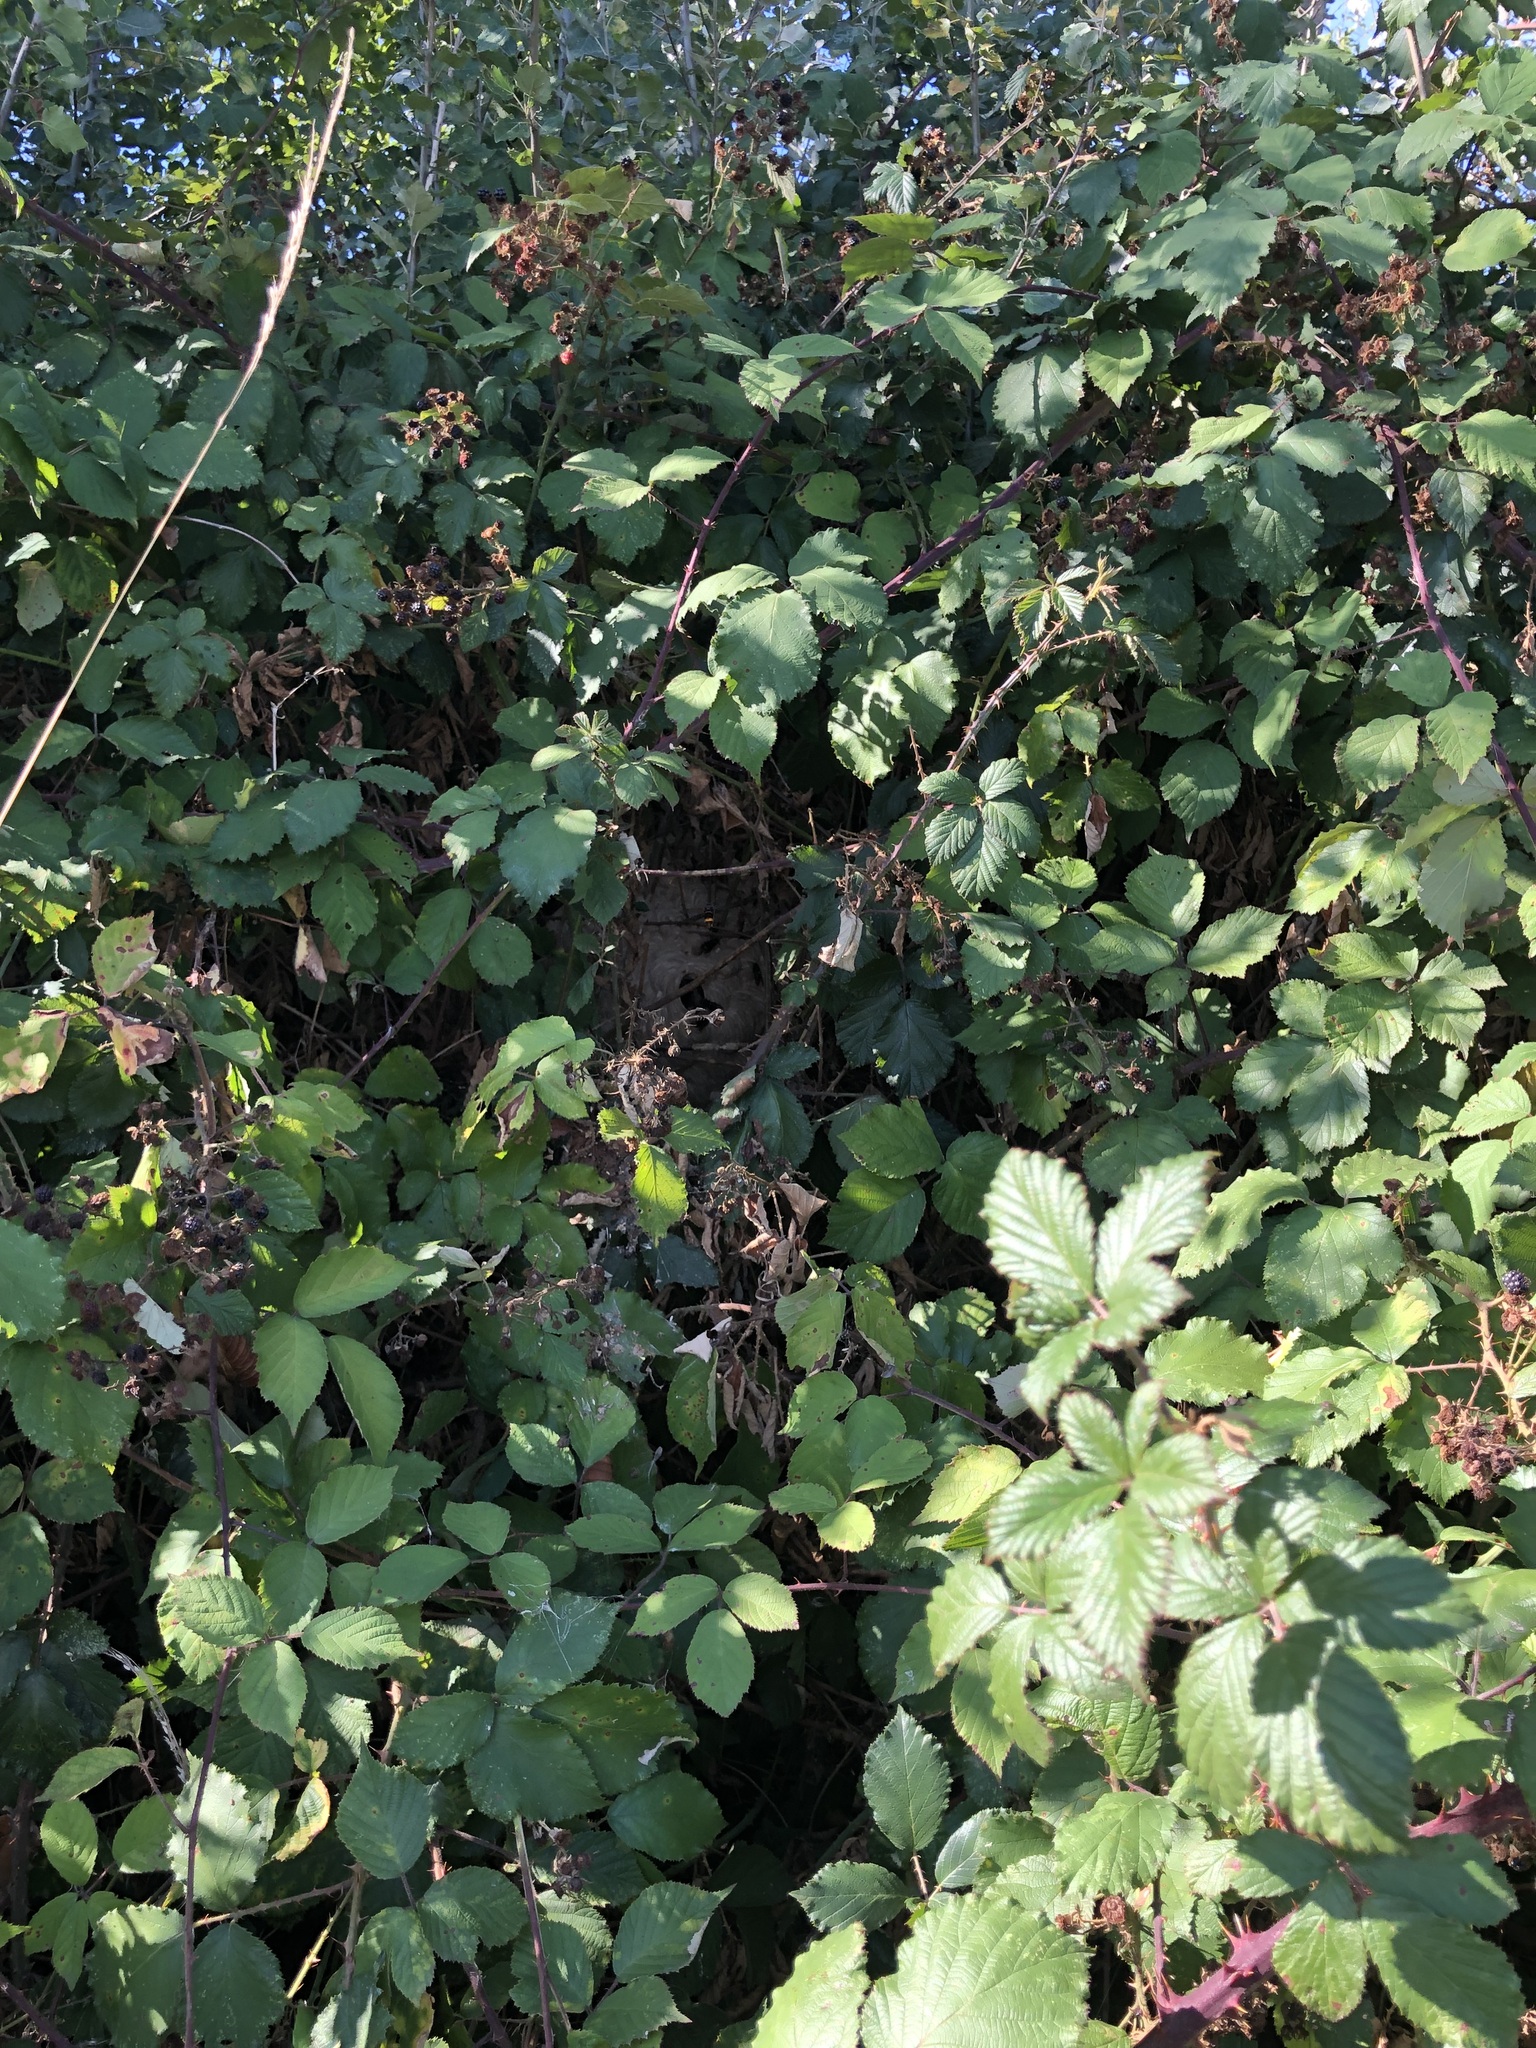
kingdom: Animalia
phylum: Arthropoda
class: Insecta
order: Hymenoptera
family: Vespidae
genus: Vespa
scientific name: Vespa velutina
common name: Asian hornet
